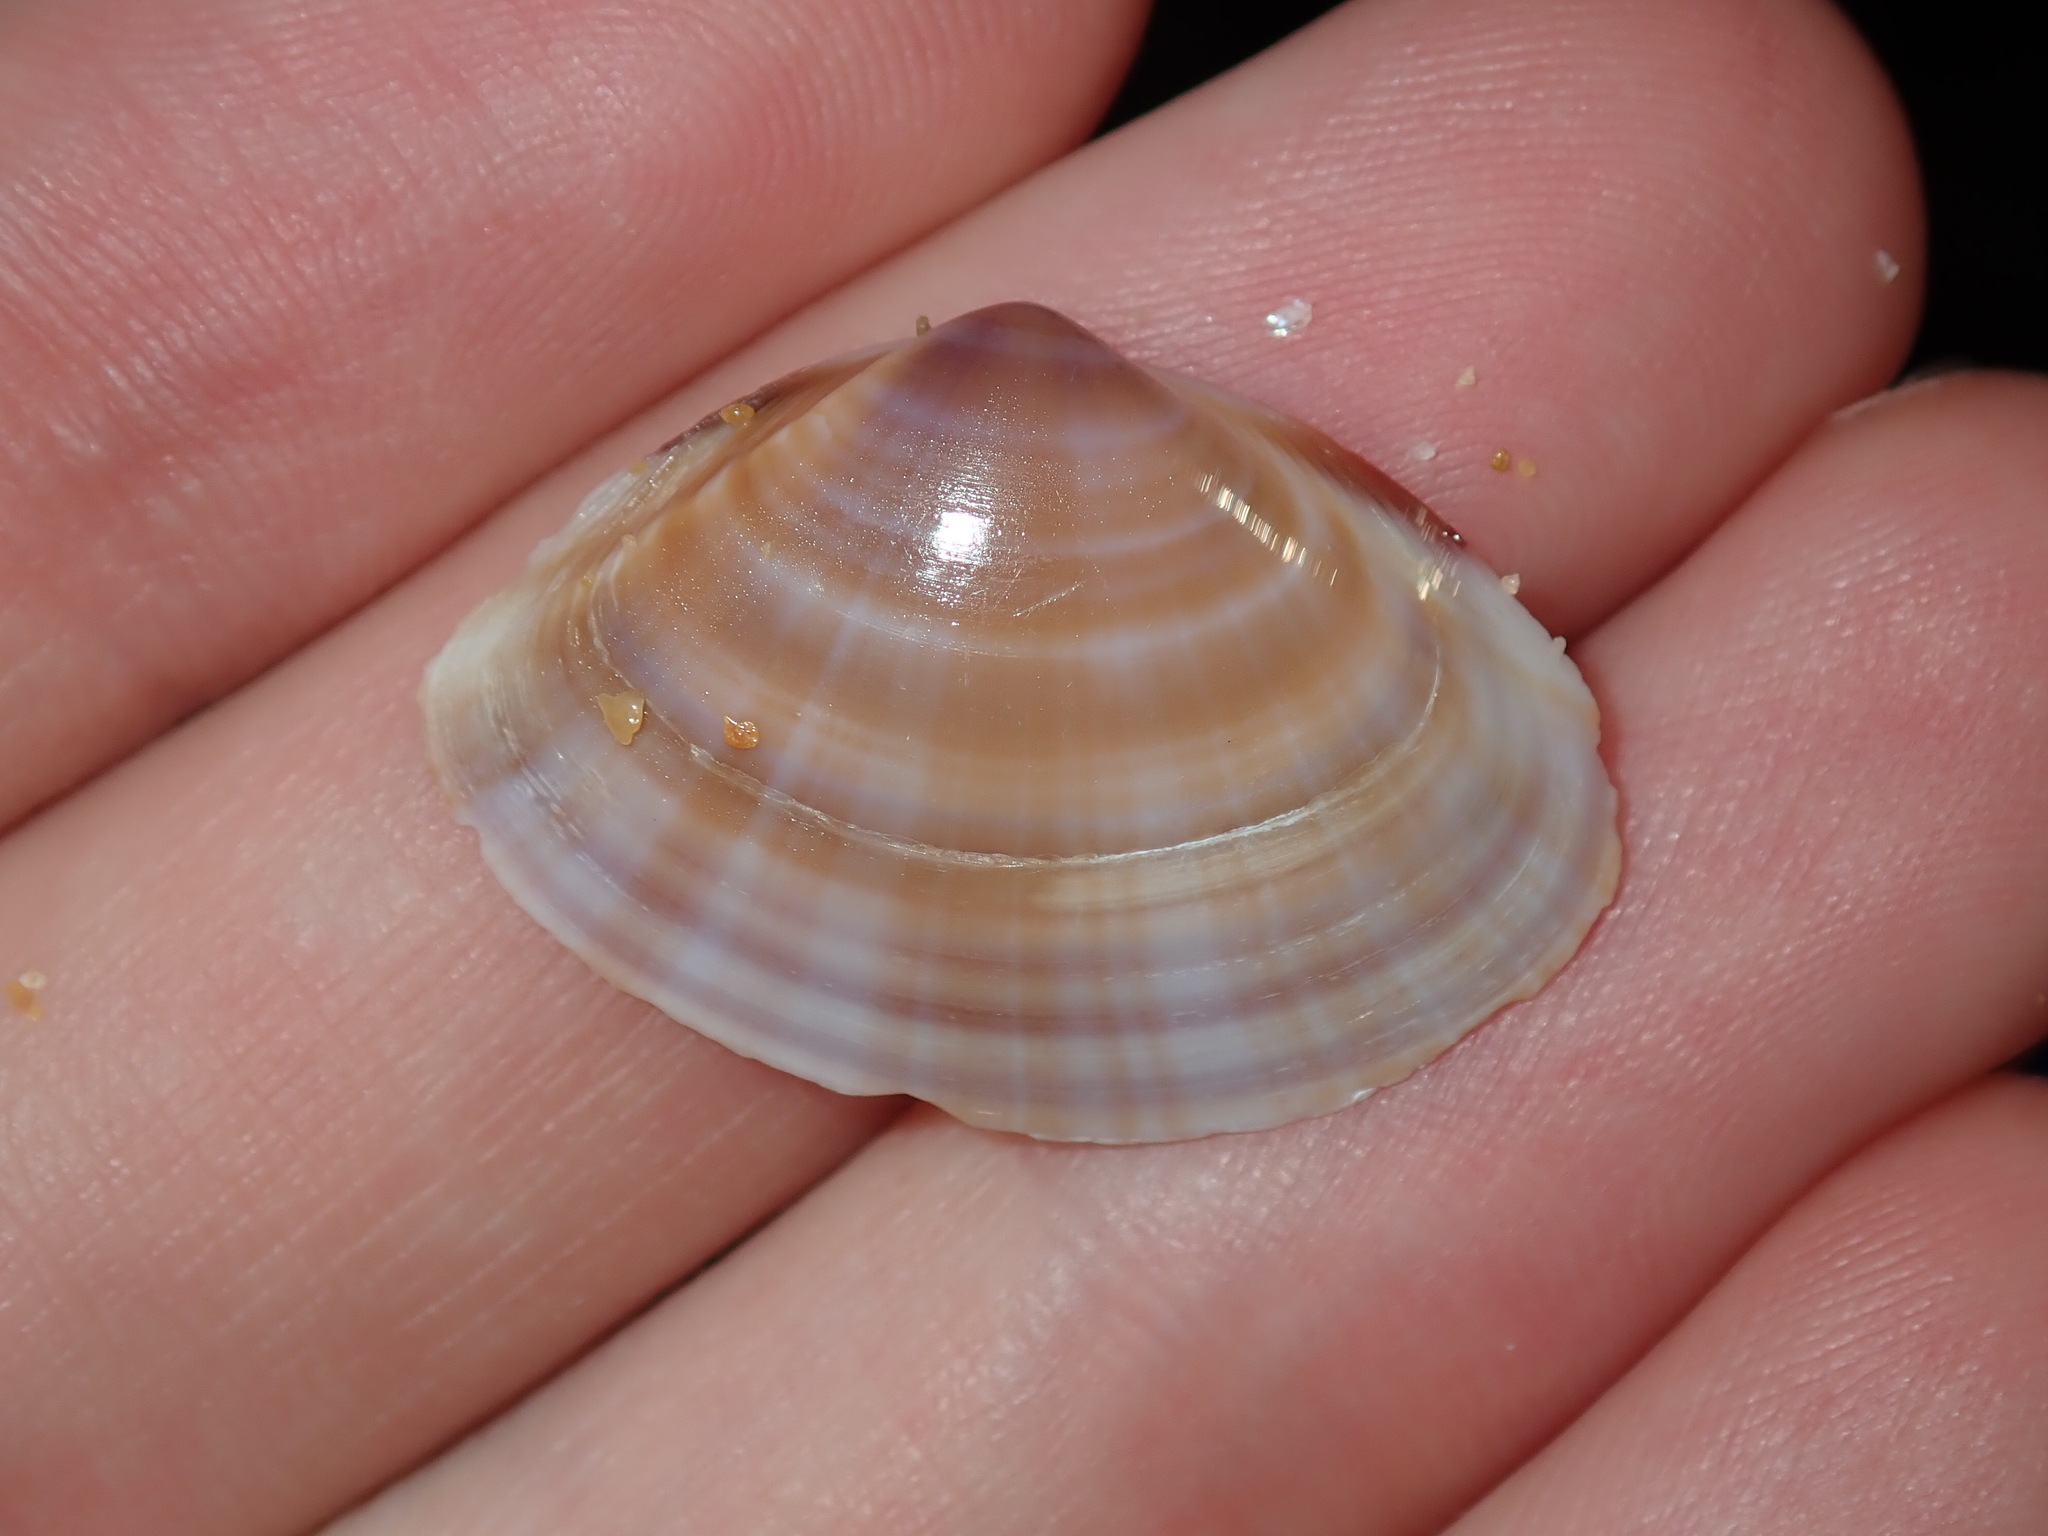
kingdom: Animalia
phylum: Mollusca
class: Bivalvia
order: Venerida
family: Mactridae
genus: Mactra
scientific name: Mactra pusilla
